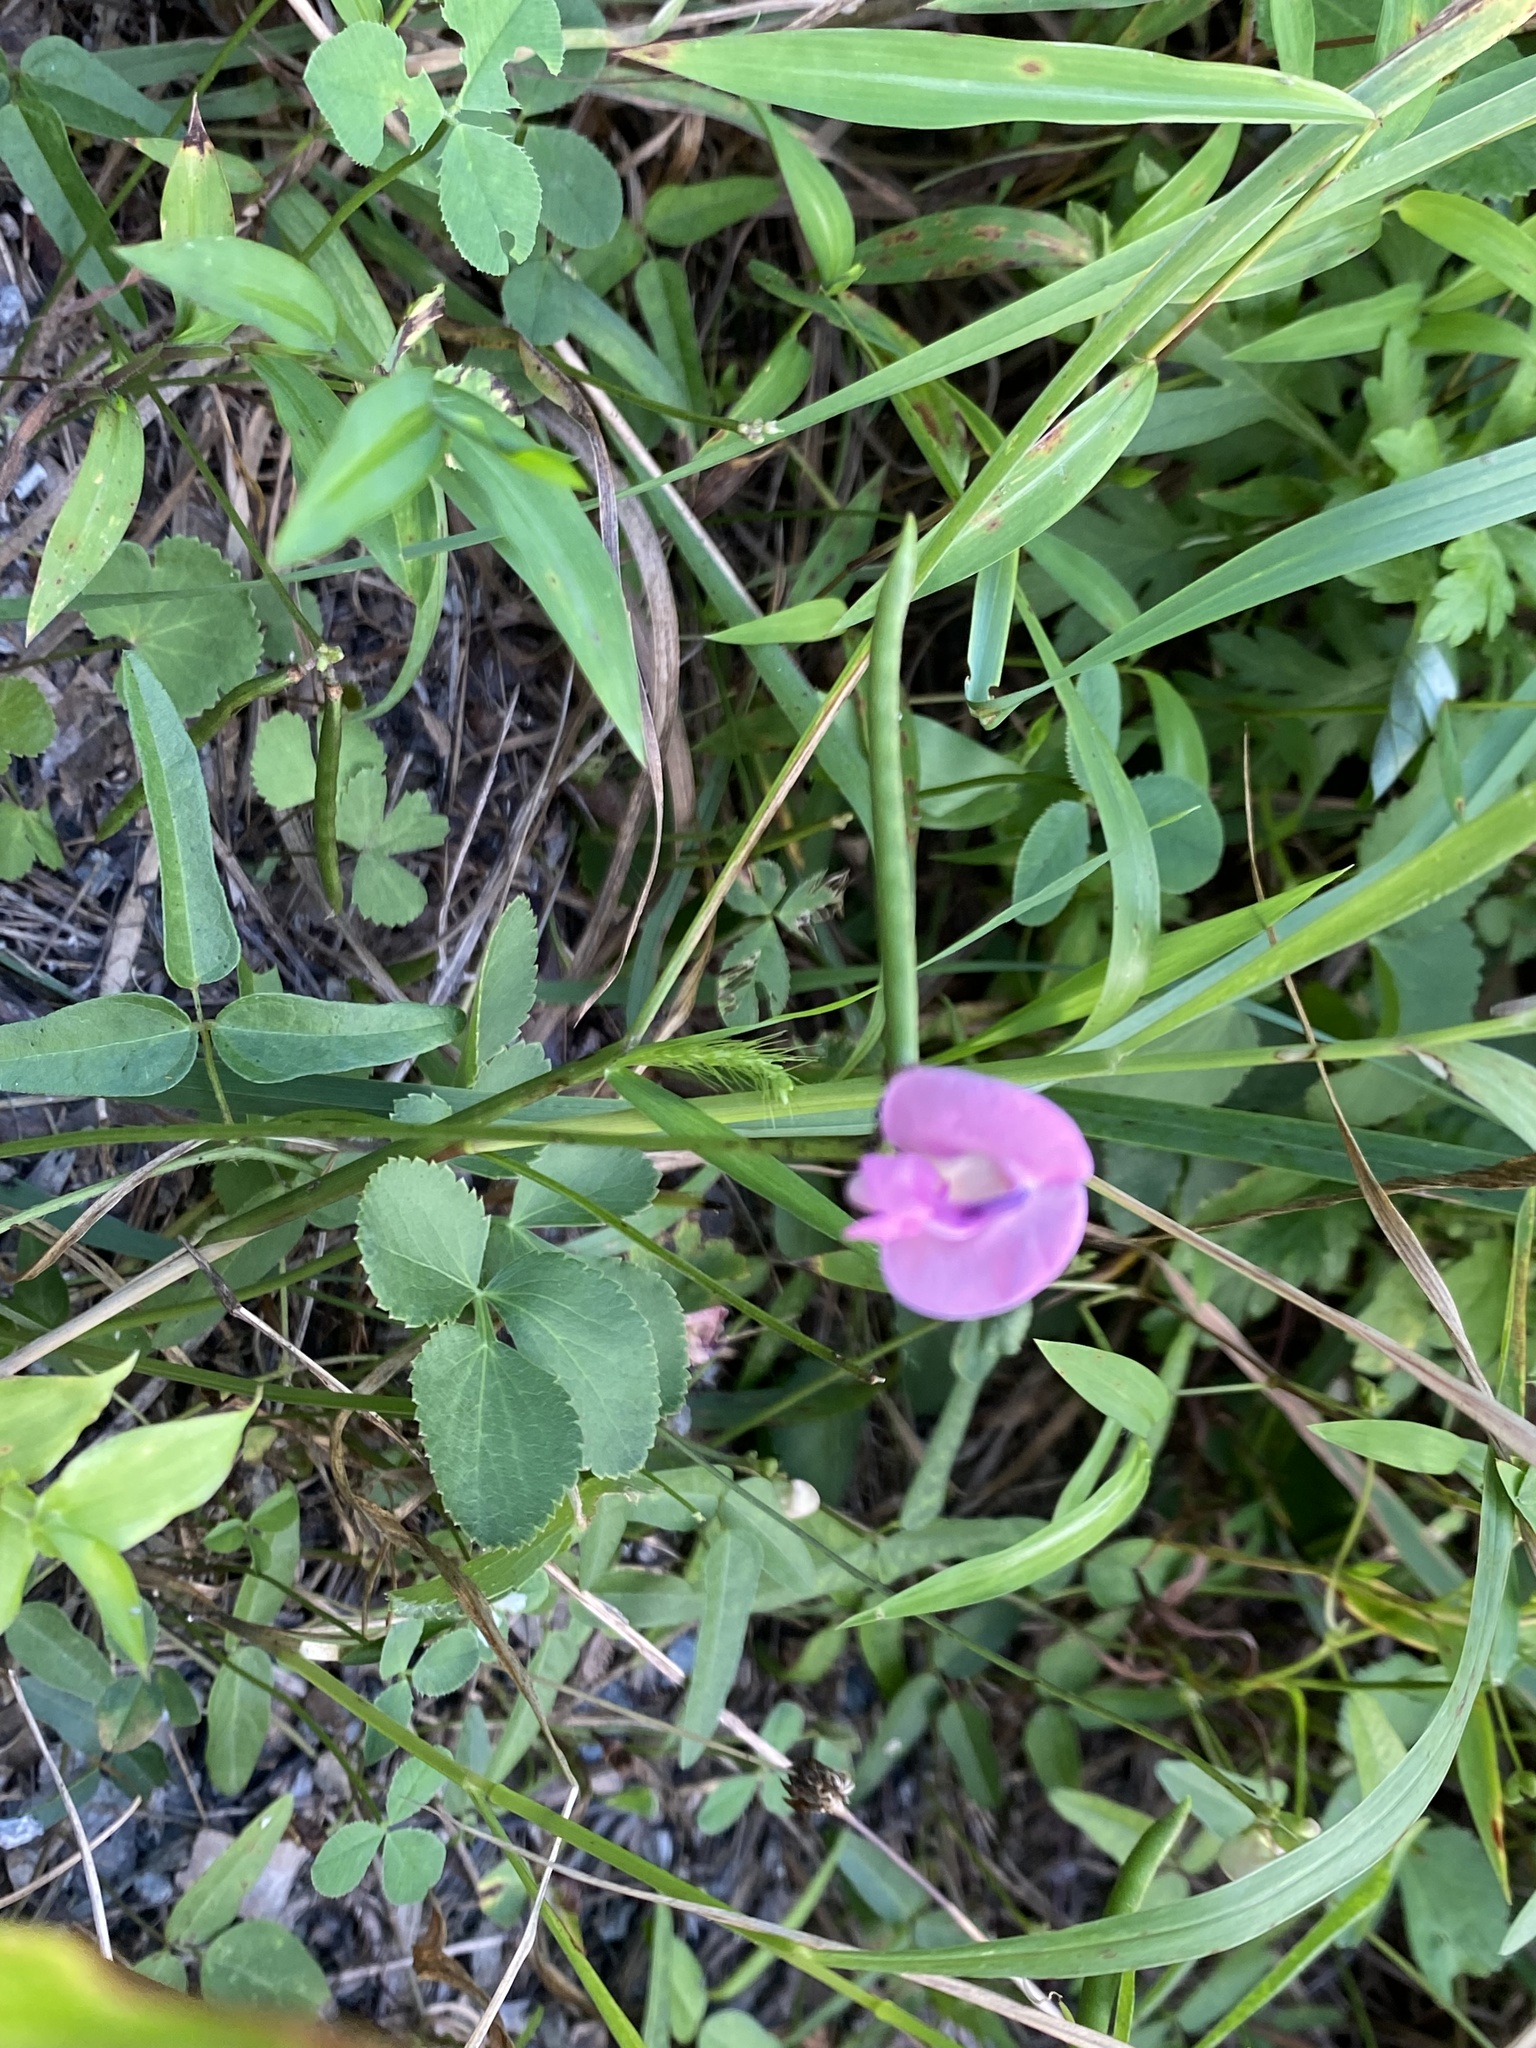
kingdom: Plantae
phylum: Tracheophyta
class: Magnoliopsida
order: Fabales
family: Fabaceae
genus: Strophostyles
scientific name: Strophostyles umbellata
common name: Perennial wild bean
